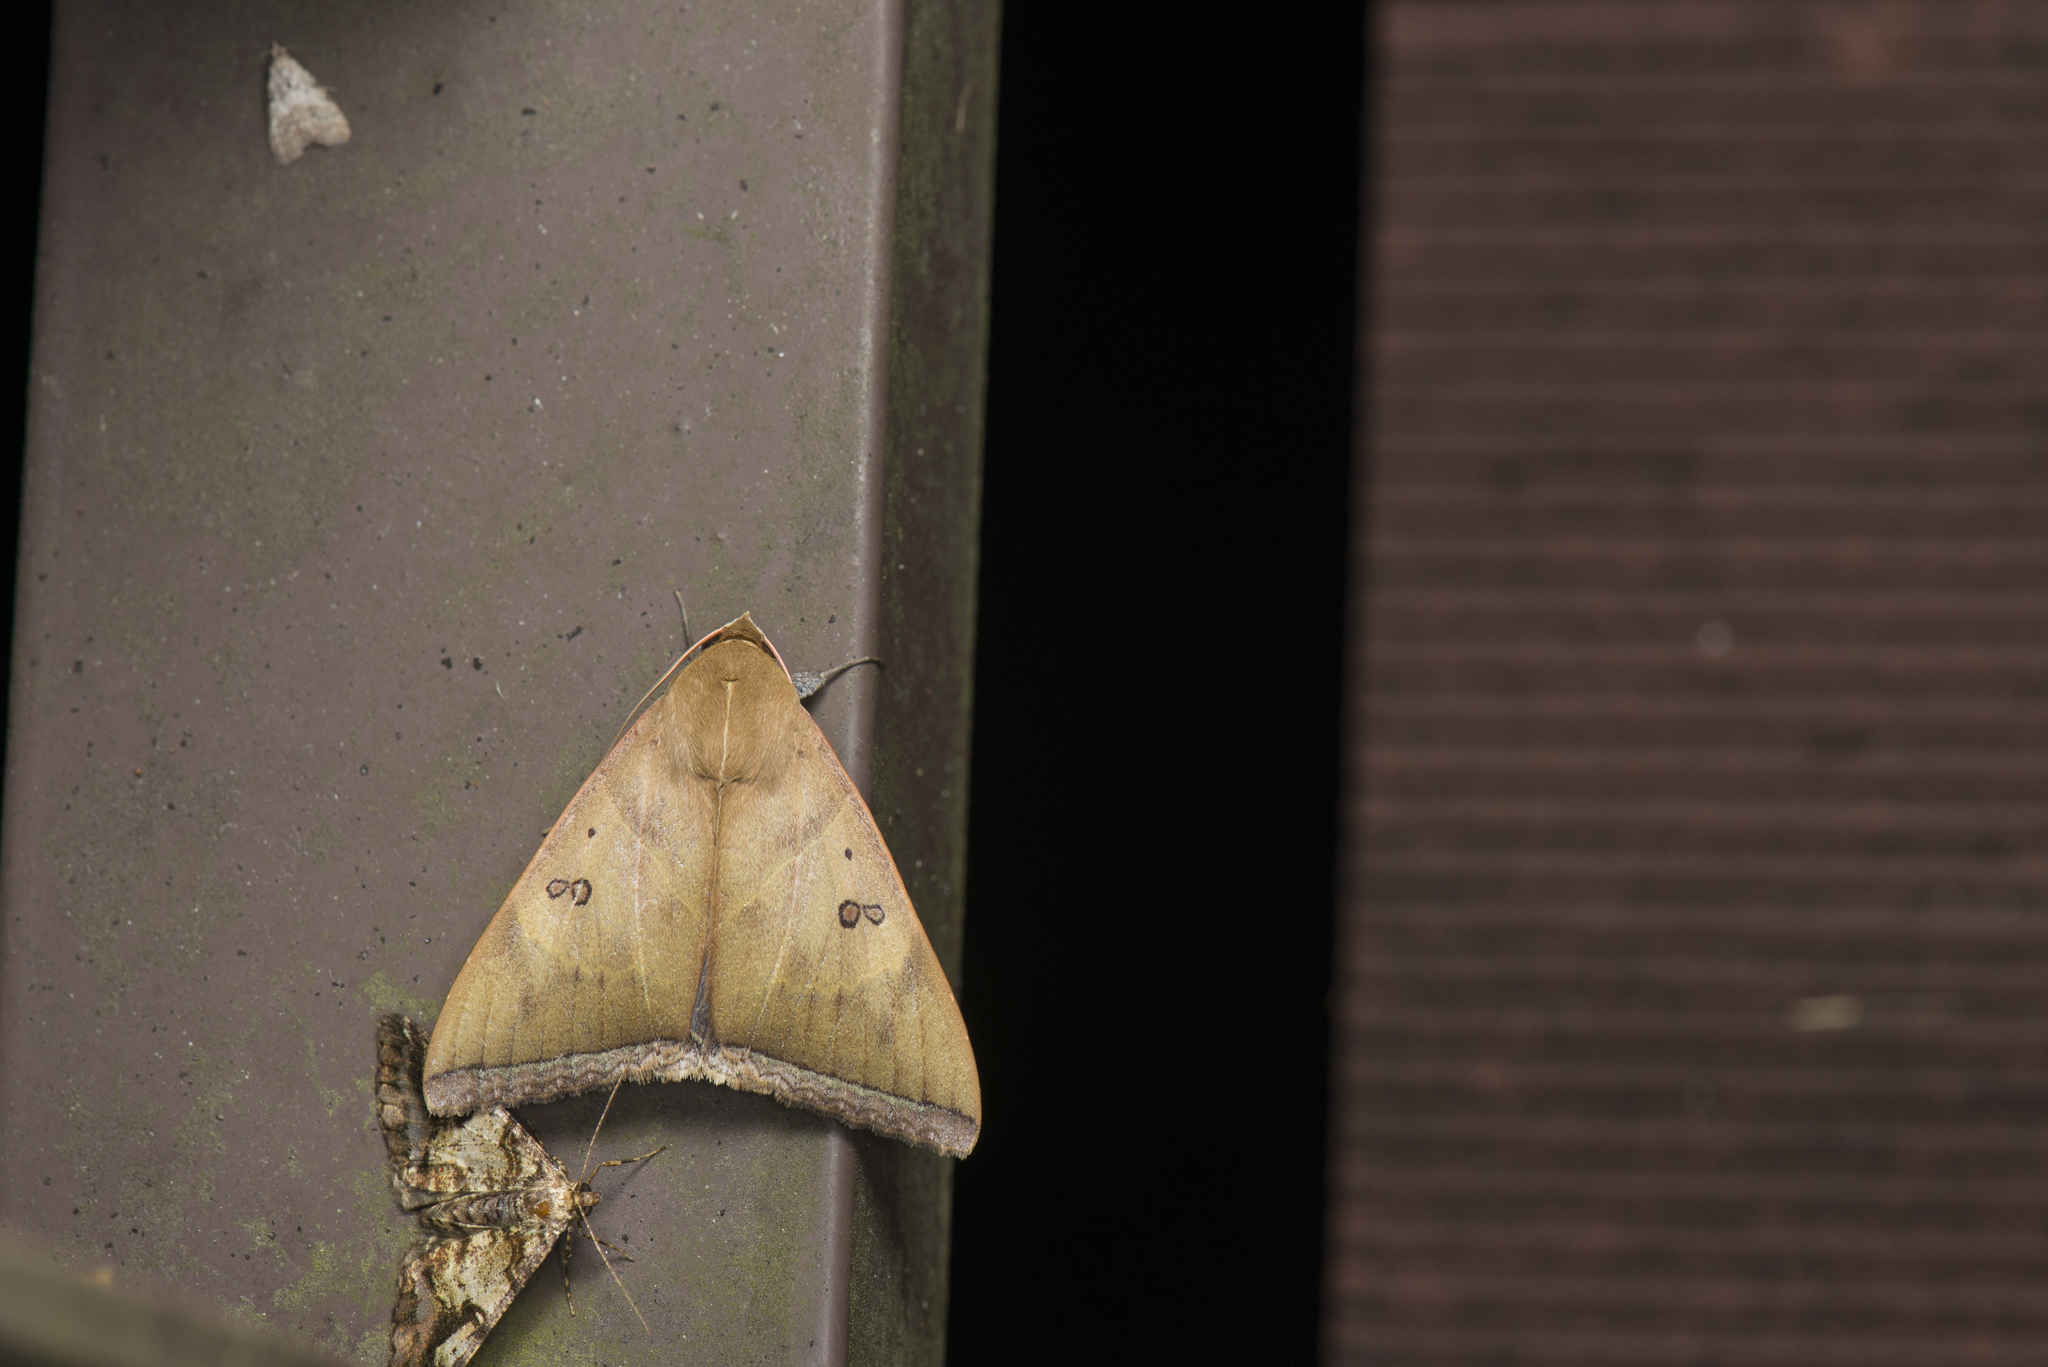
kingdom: Animalia
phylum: Arthropoda
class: Insecta
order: Lepidoptera
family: Erebidae
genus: Artena
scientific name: Artena dotata
